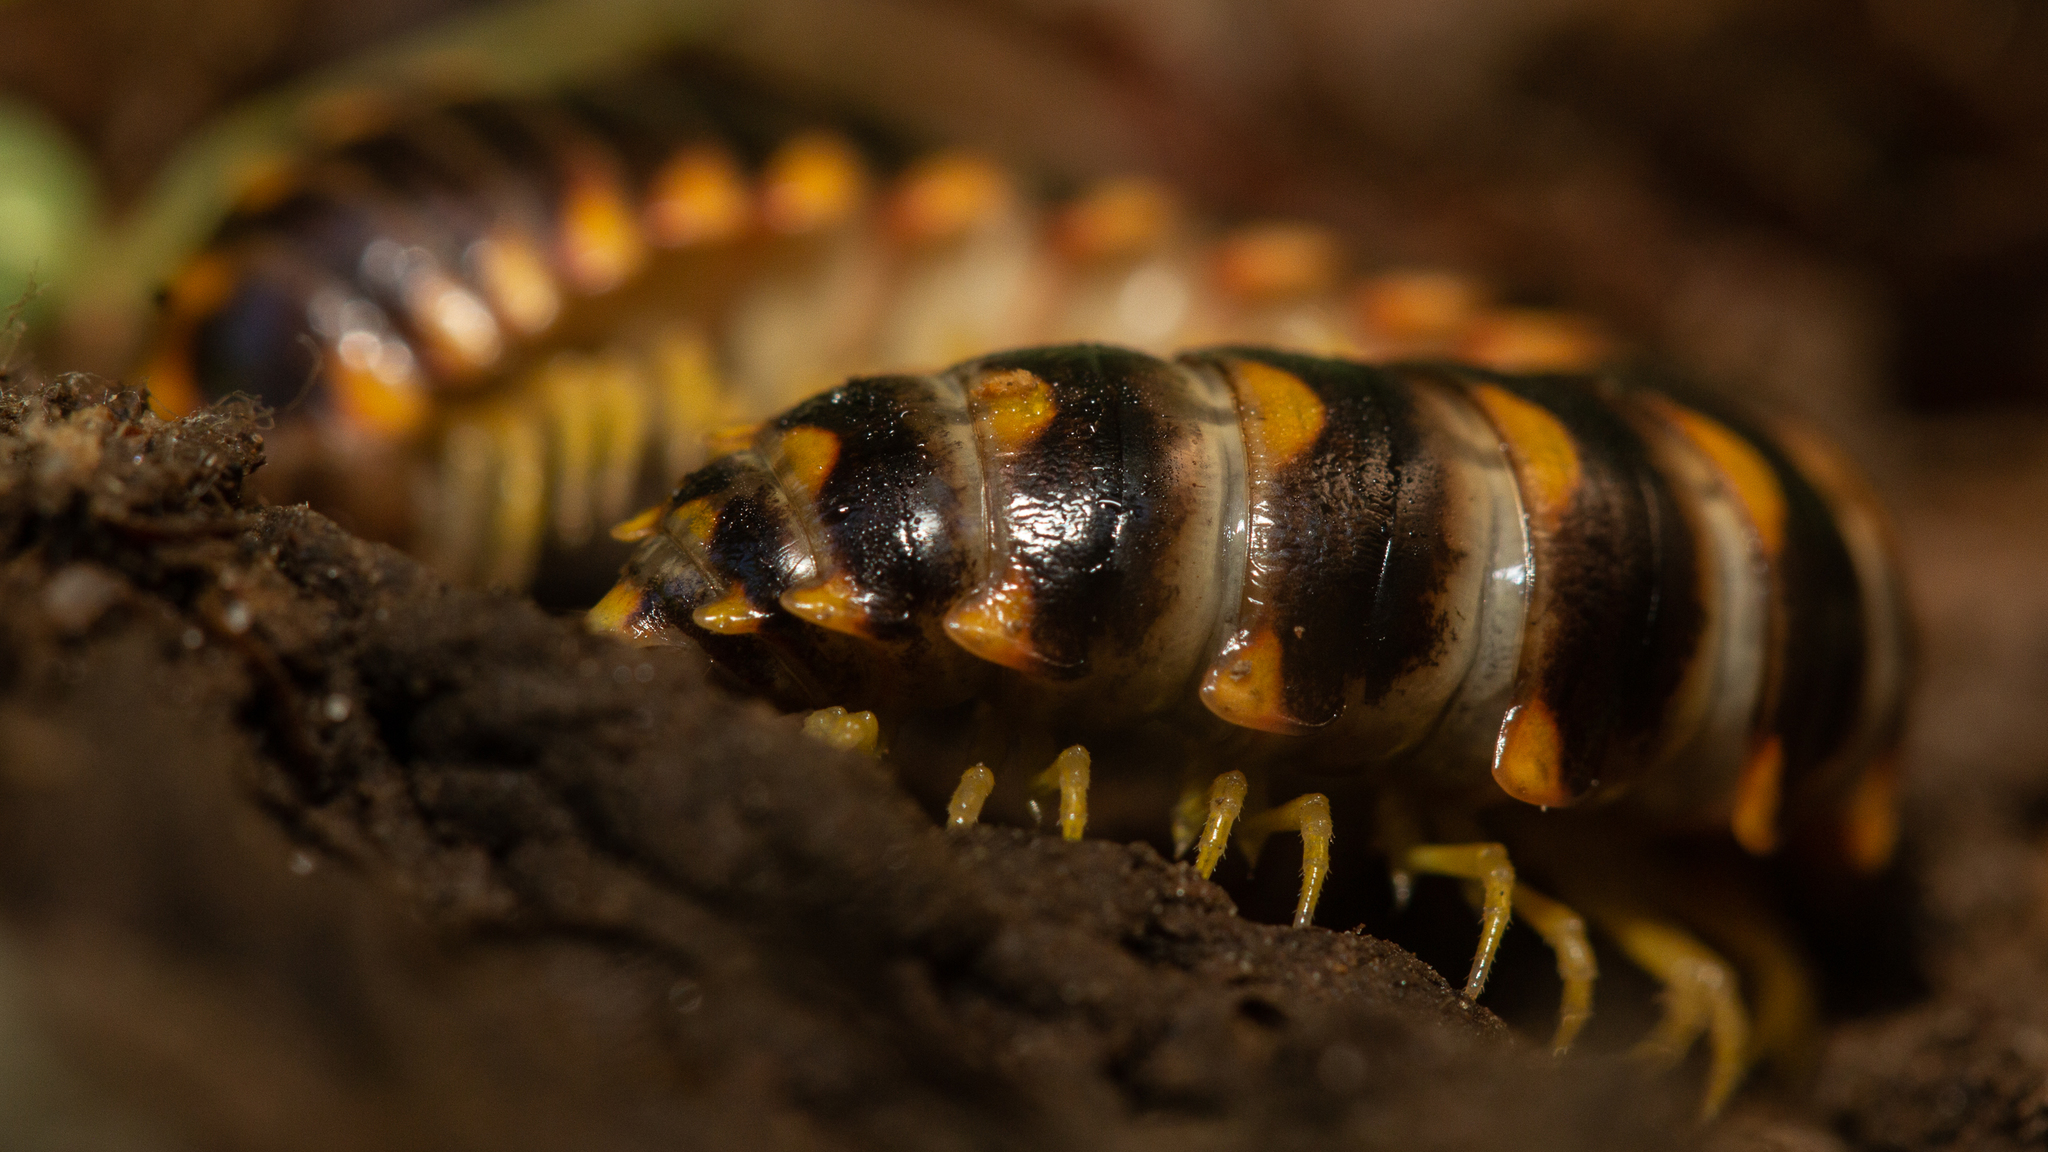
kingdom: Animalia
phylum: Arthropoda
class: Diplopoda
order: Polydesmida
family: Xystodesmidae
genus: Rudiloria
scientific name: Rudiloria trimaculata
